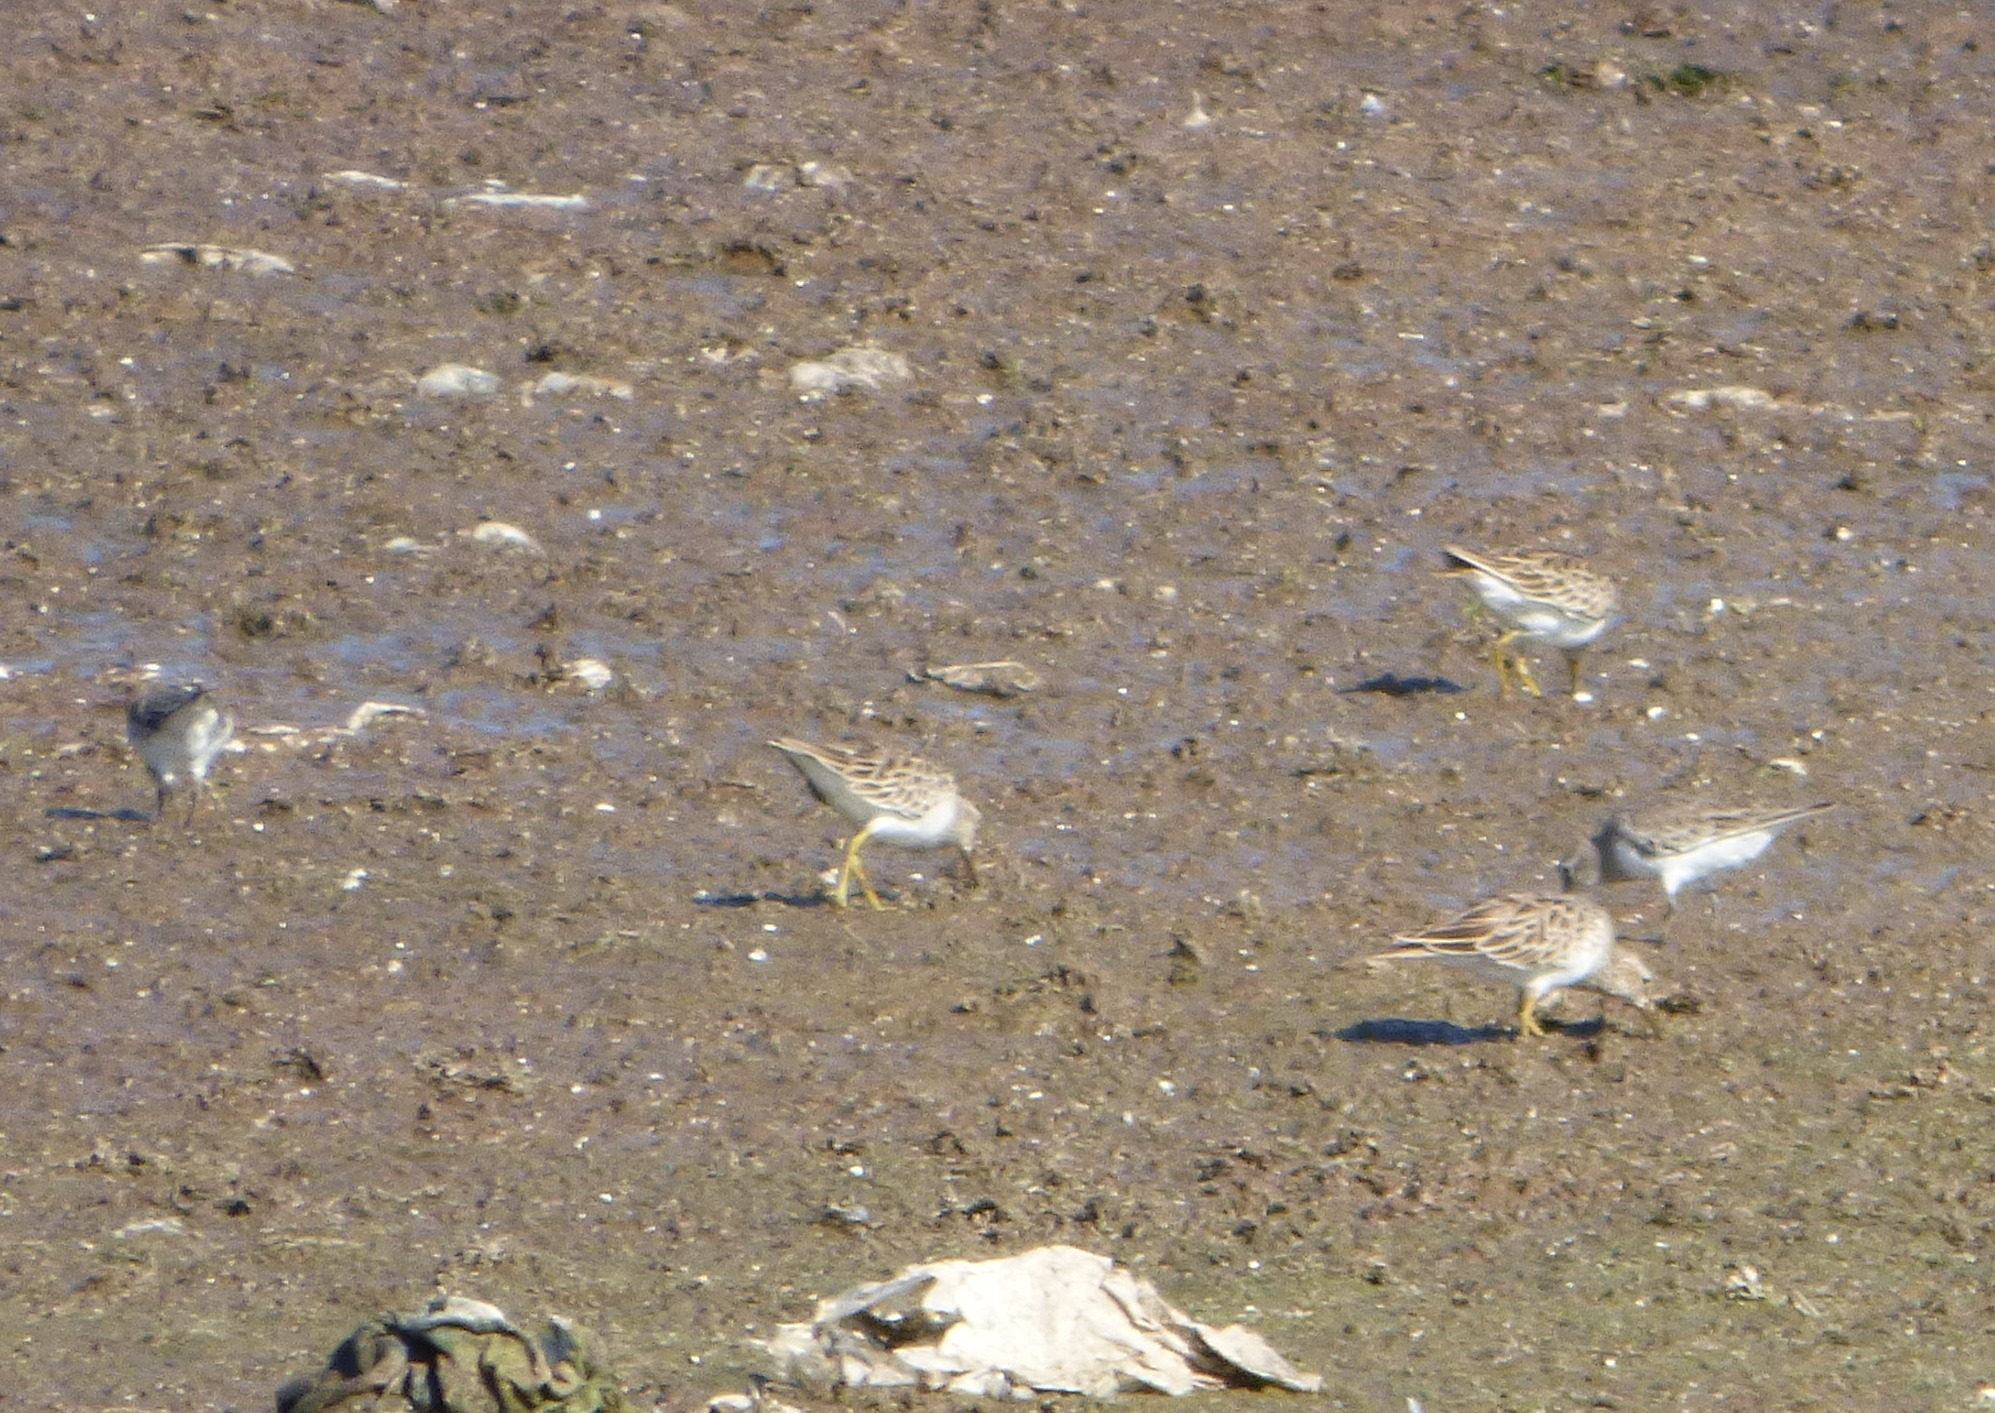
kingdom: Animalia
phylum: Chordata
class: Aves
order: Charadriiformes
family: Scolopacidae
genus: Calidris
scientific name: Calidris melanotos
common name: Pectoral sandpiper
